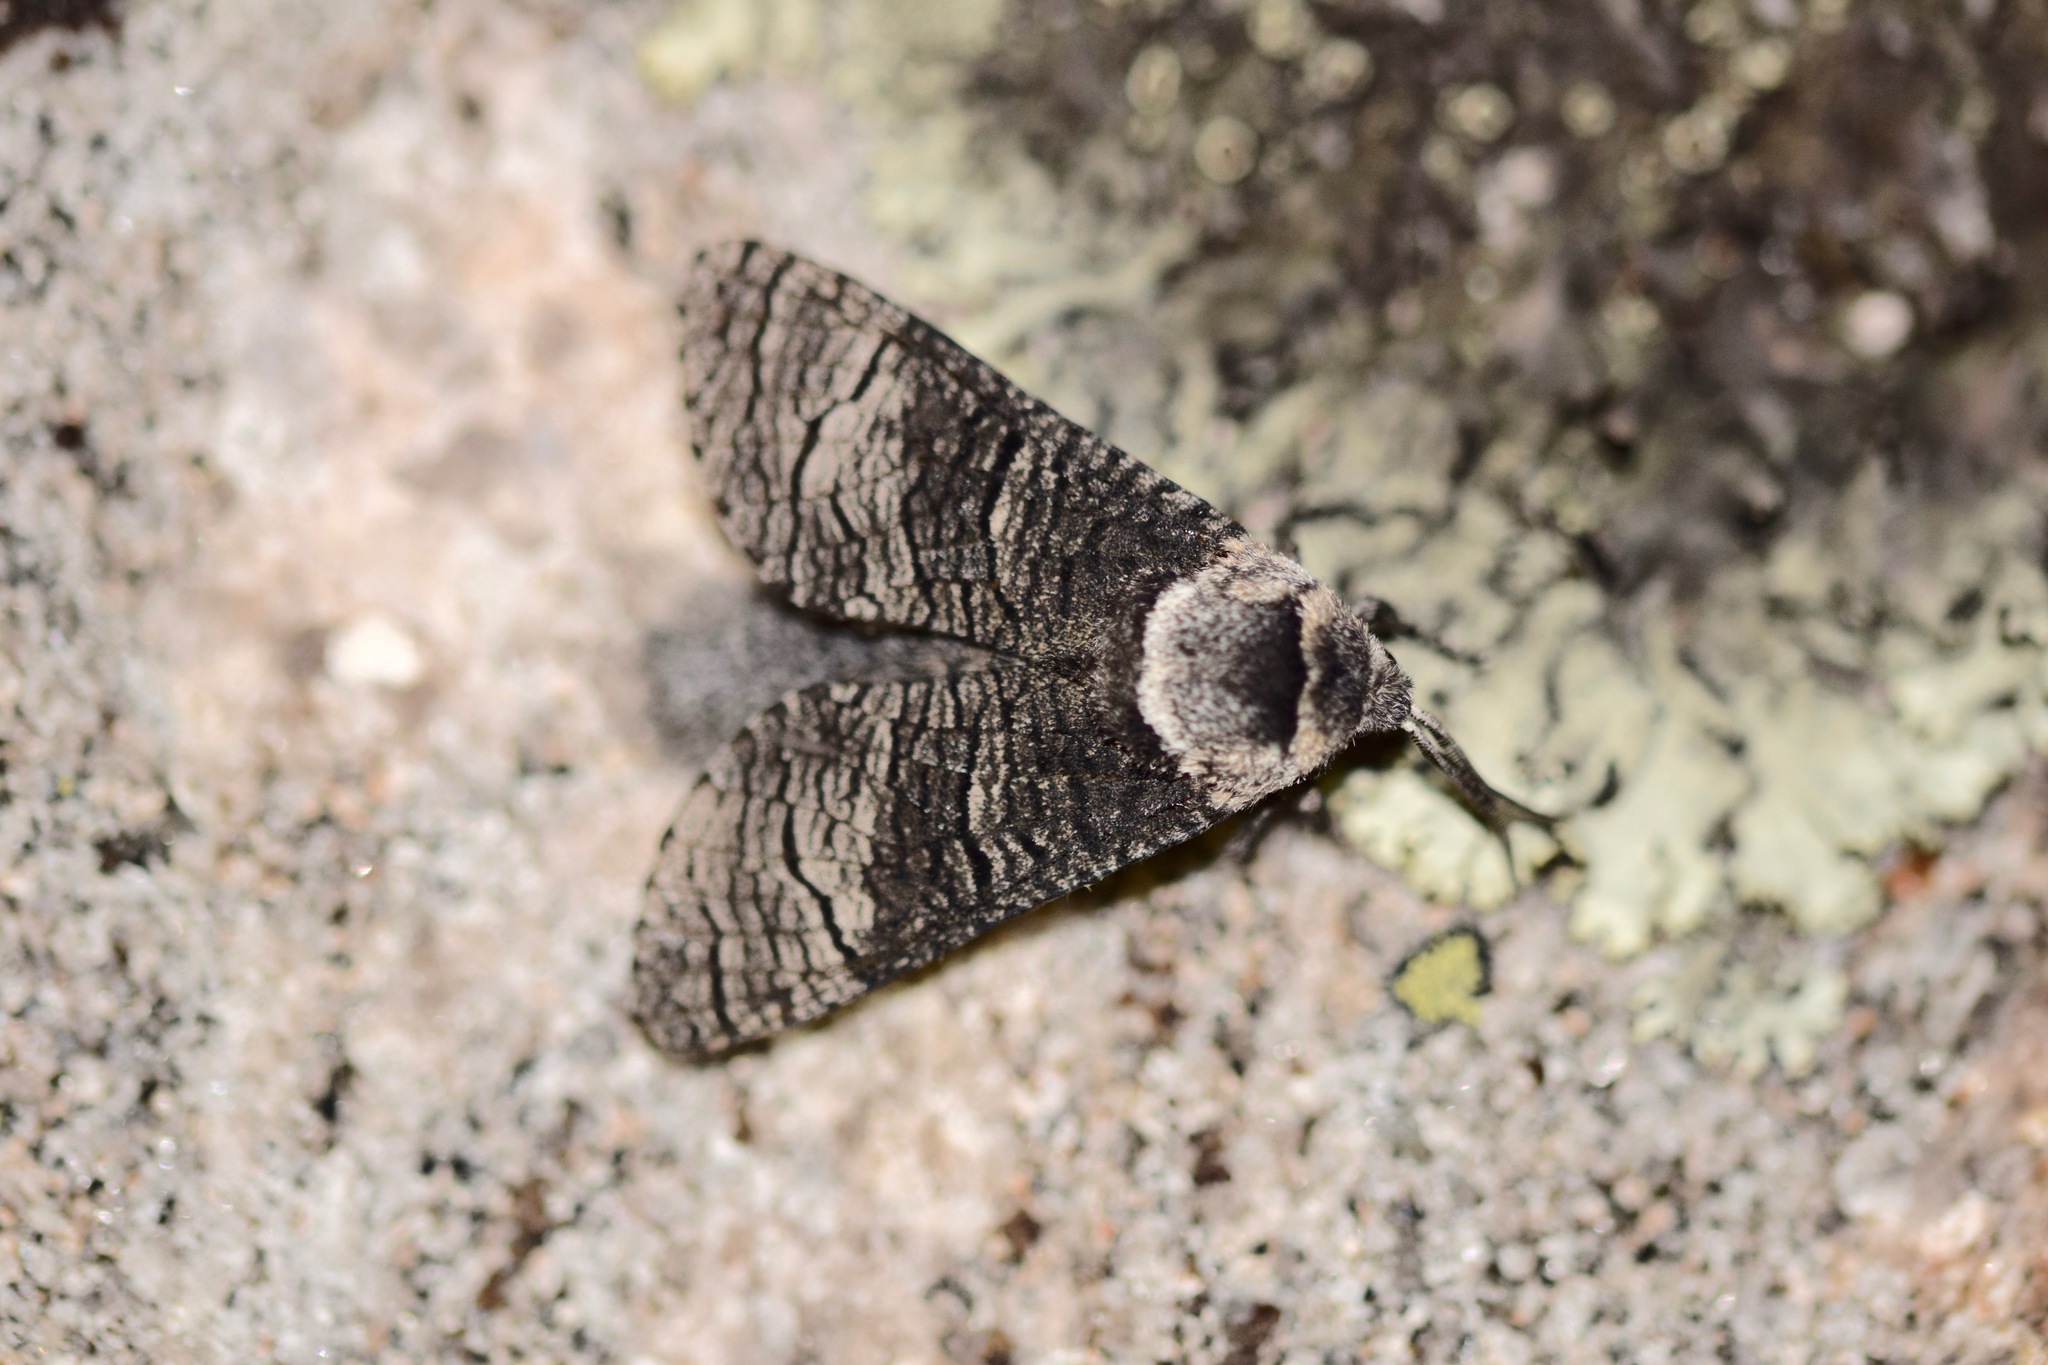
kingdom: Animalia
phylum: Arthropoda
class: Insecta
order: Lepidoptera
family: Cossidae
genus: Acossus
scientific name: Acossus centerensis
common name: Poplar carpenterworm moth
